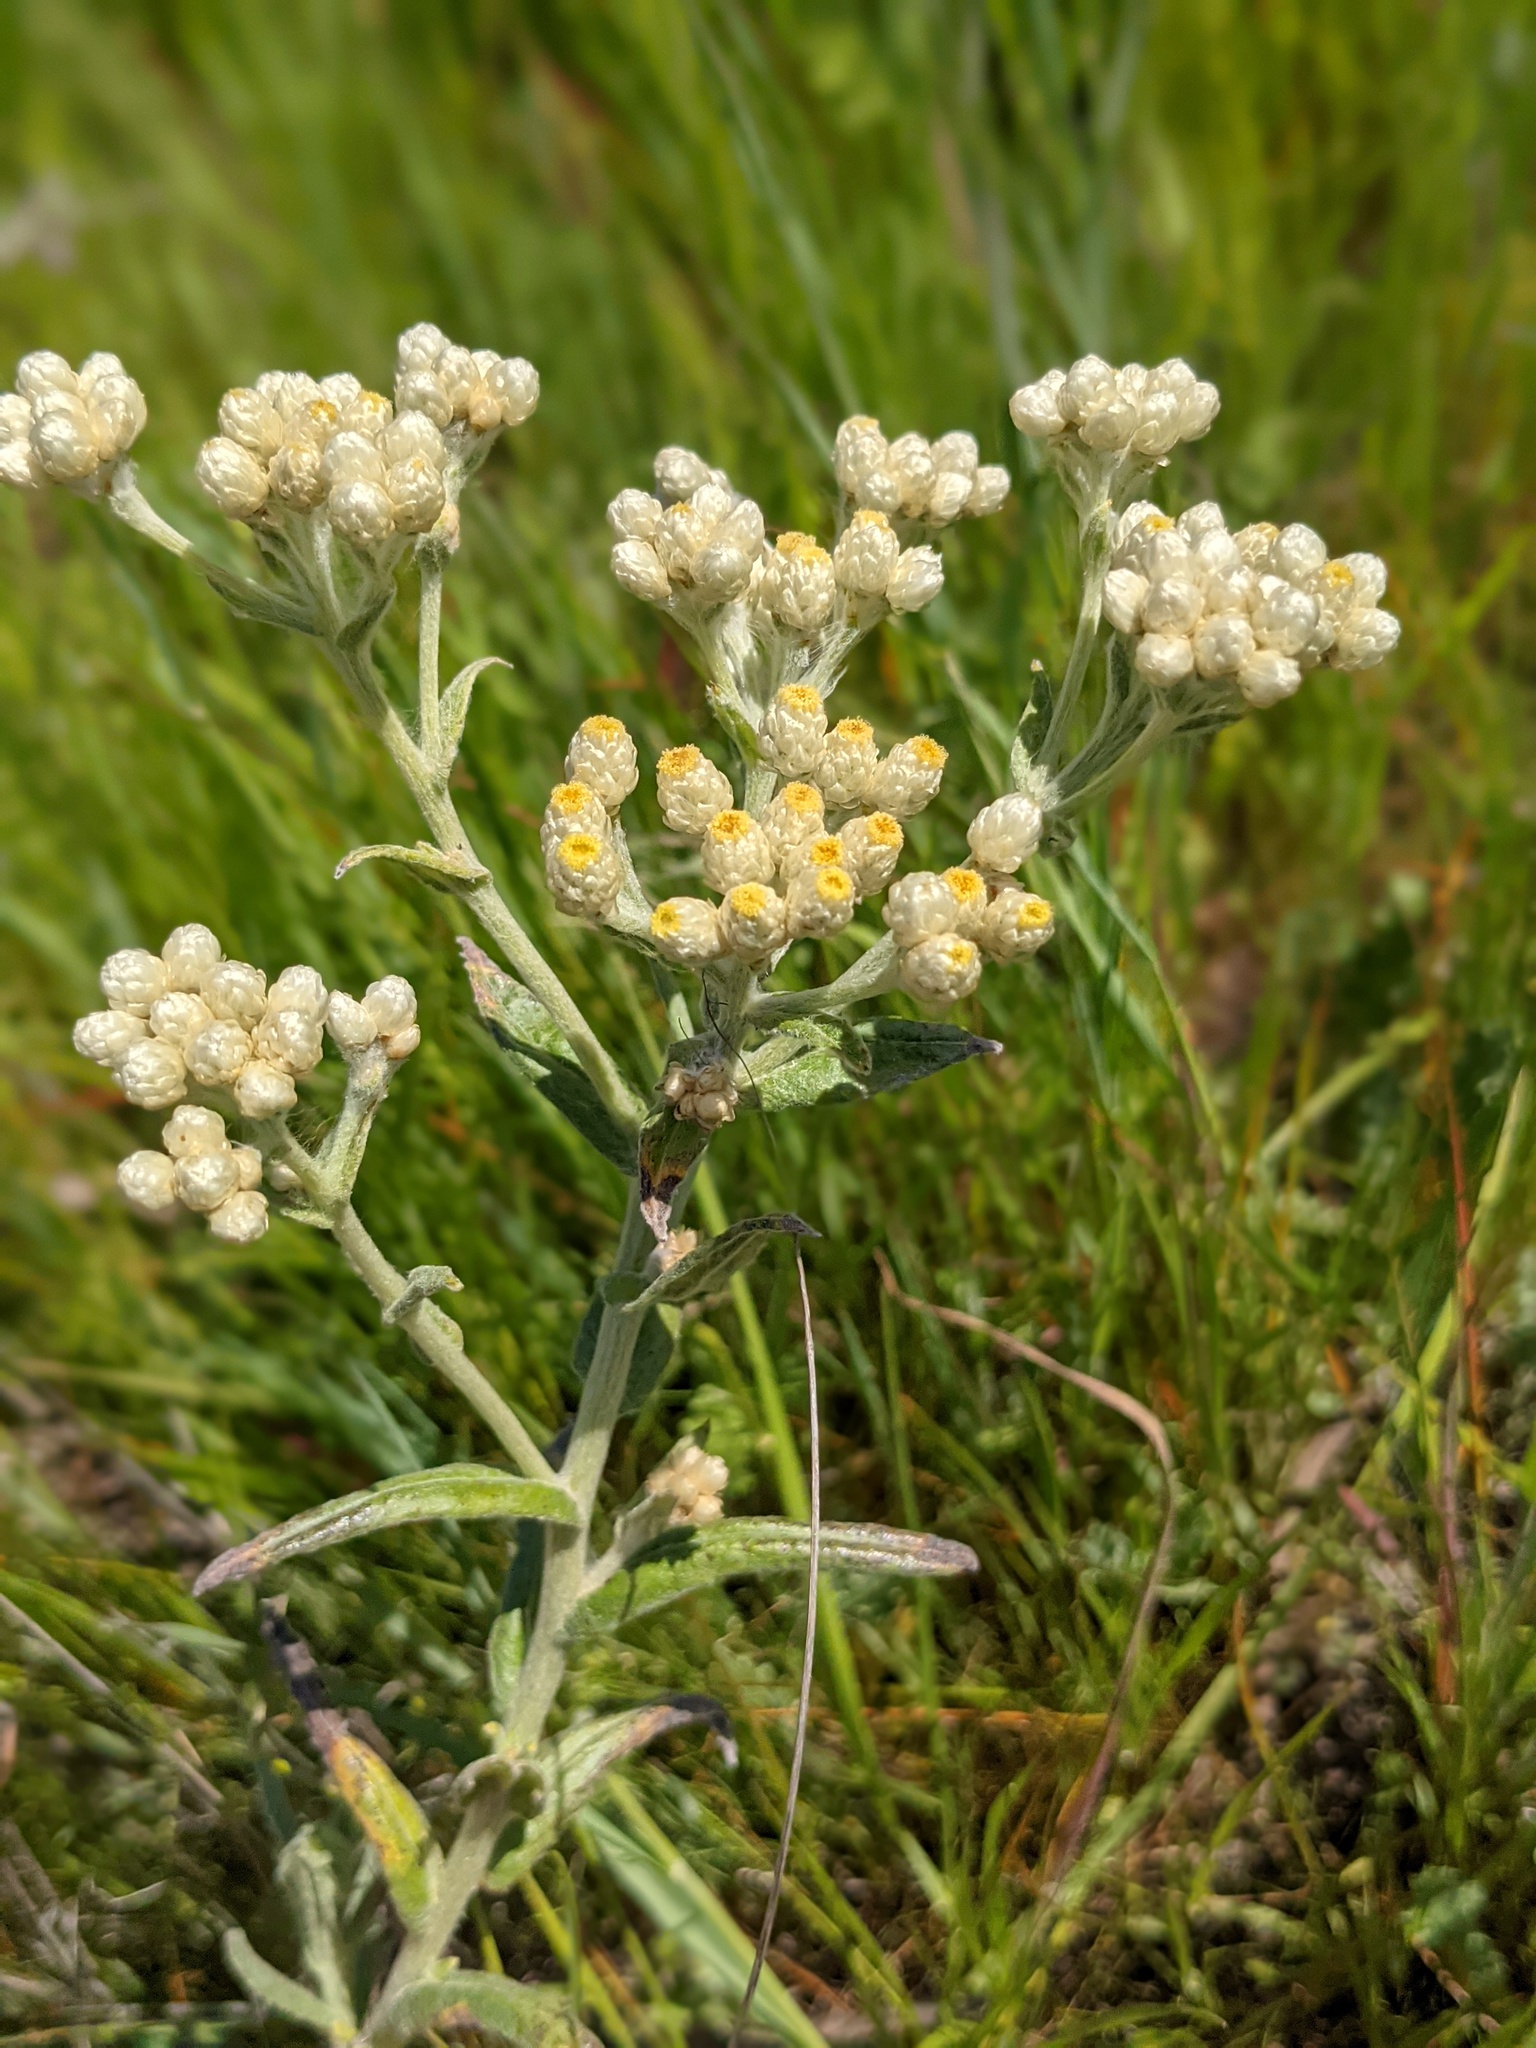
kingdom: Plantae
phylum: Tracheophyta
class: Magnoliopsida
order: Asterales
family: Asteraceae
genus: Anaphalis
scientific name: Anaphalis margaritacea
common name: Pearly everlasting
